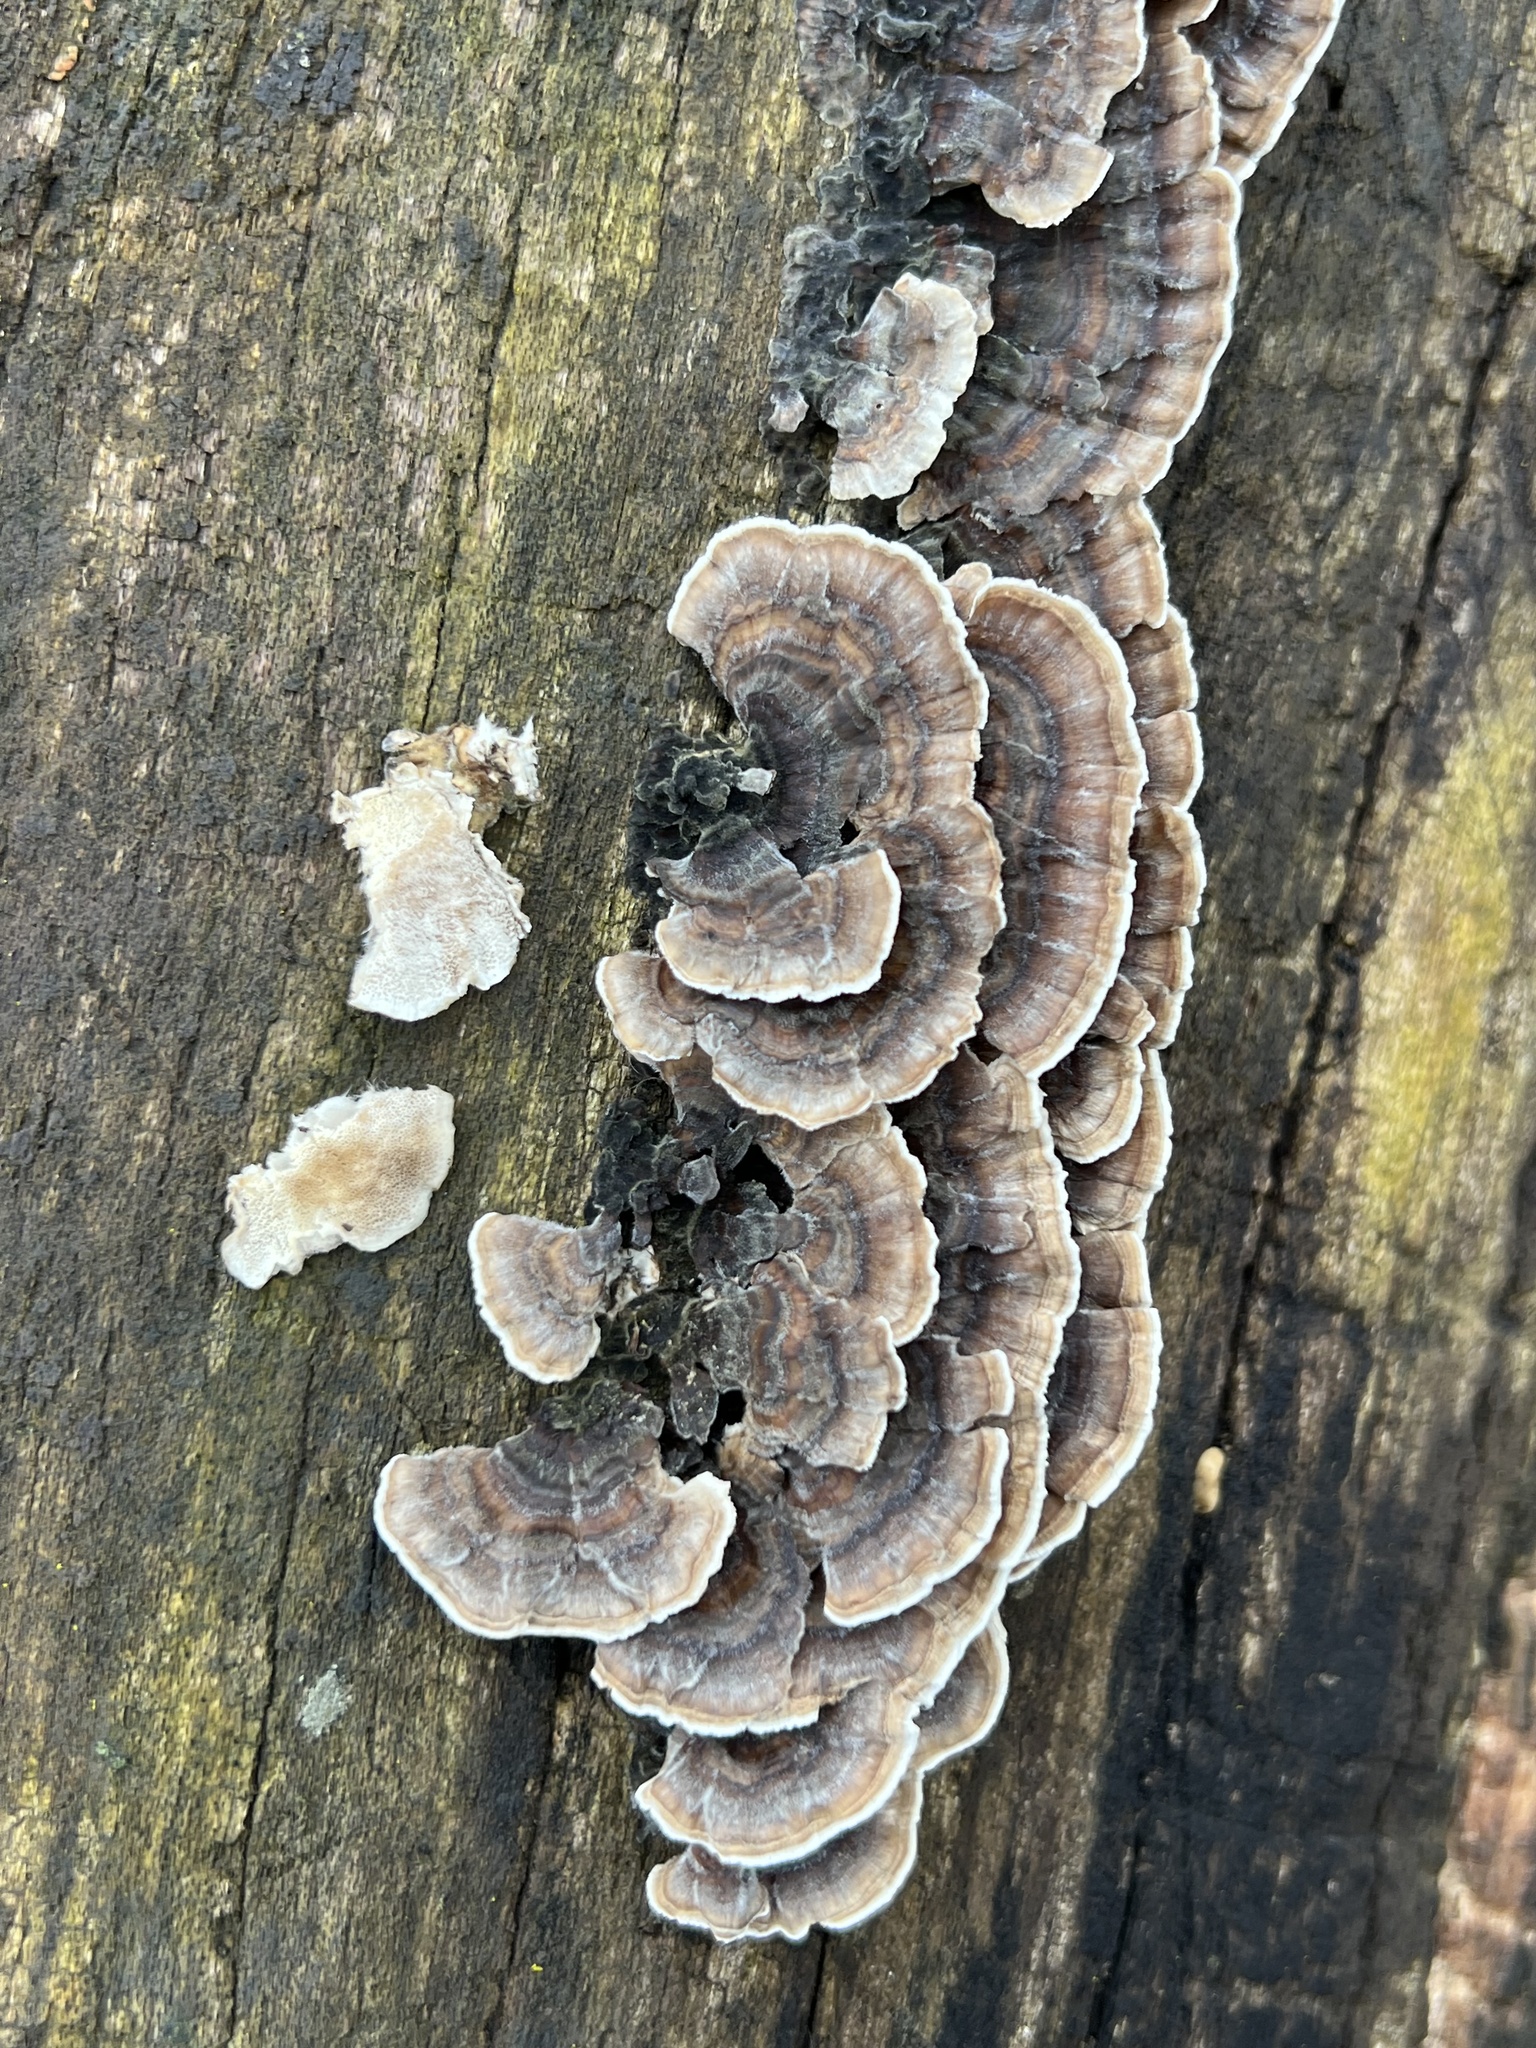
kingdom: Fungi
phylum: Basidiomycota
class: Agaricomycetes
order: Polyporales
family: Polyporaceae
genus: Trametes
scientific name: Trametes versicolor
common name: Turkeytail
